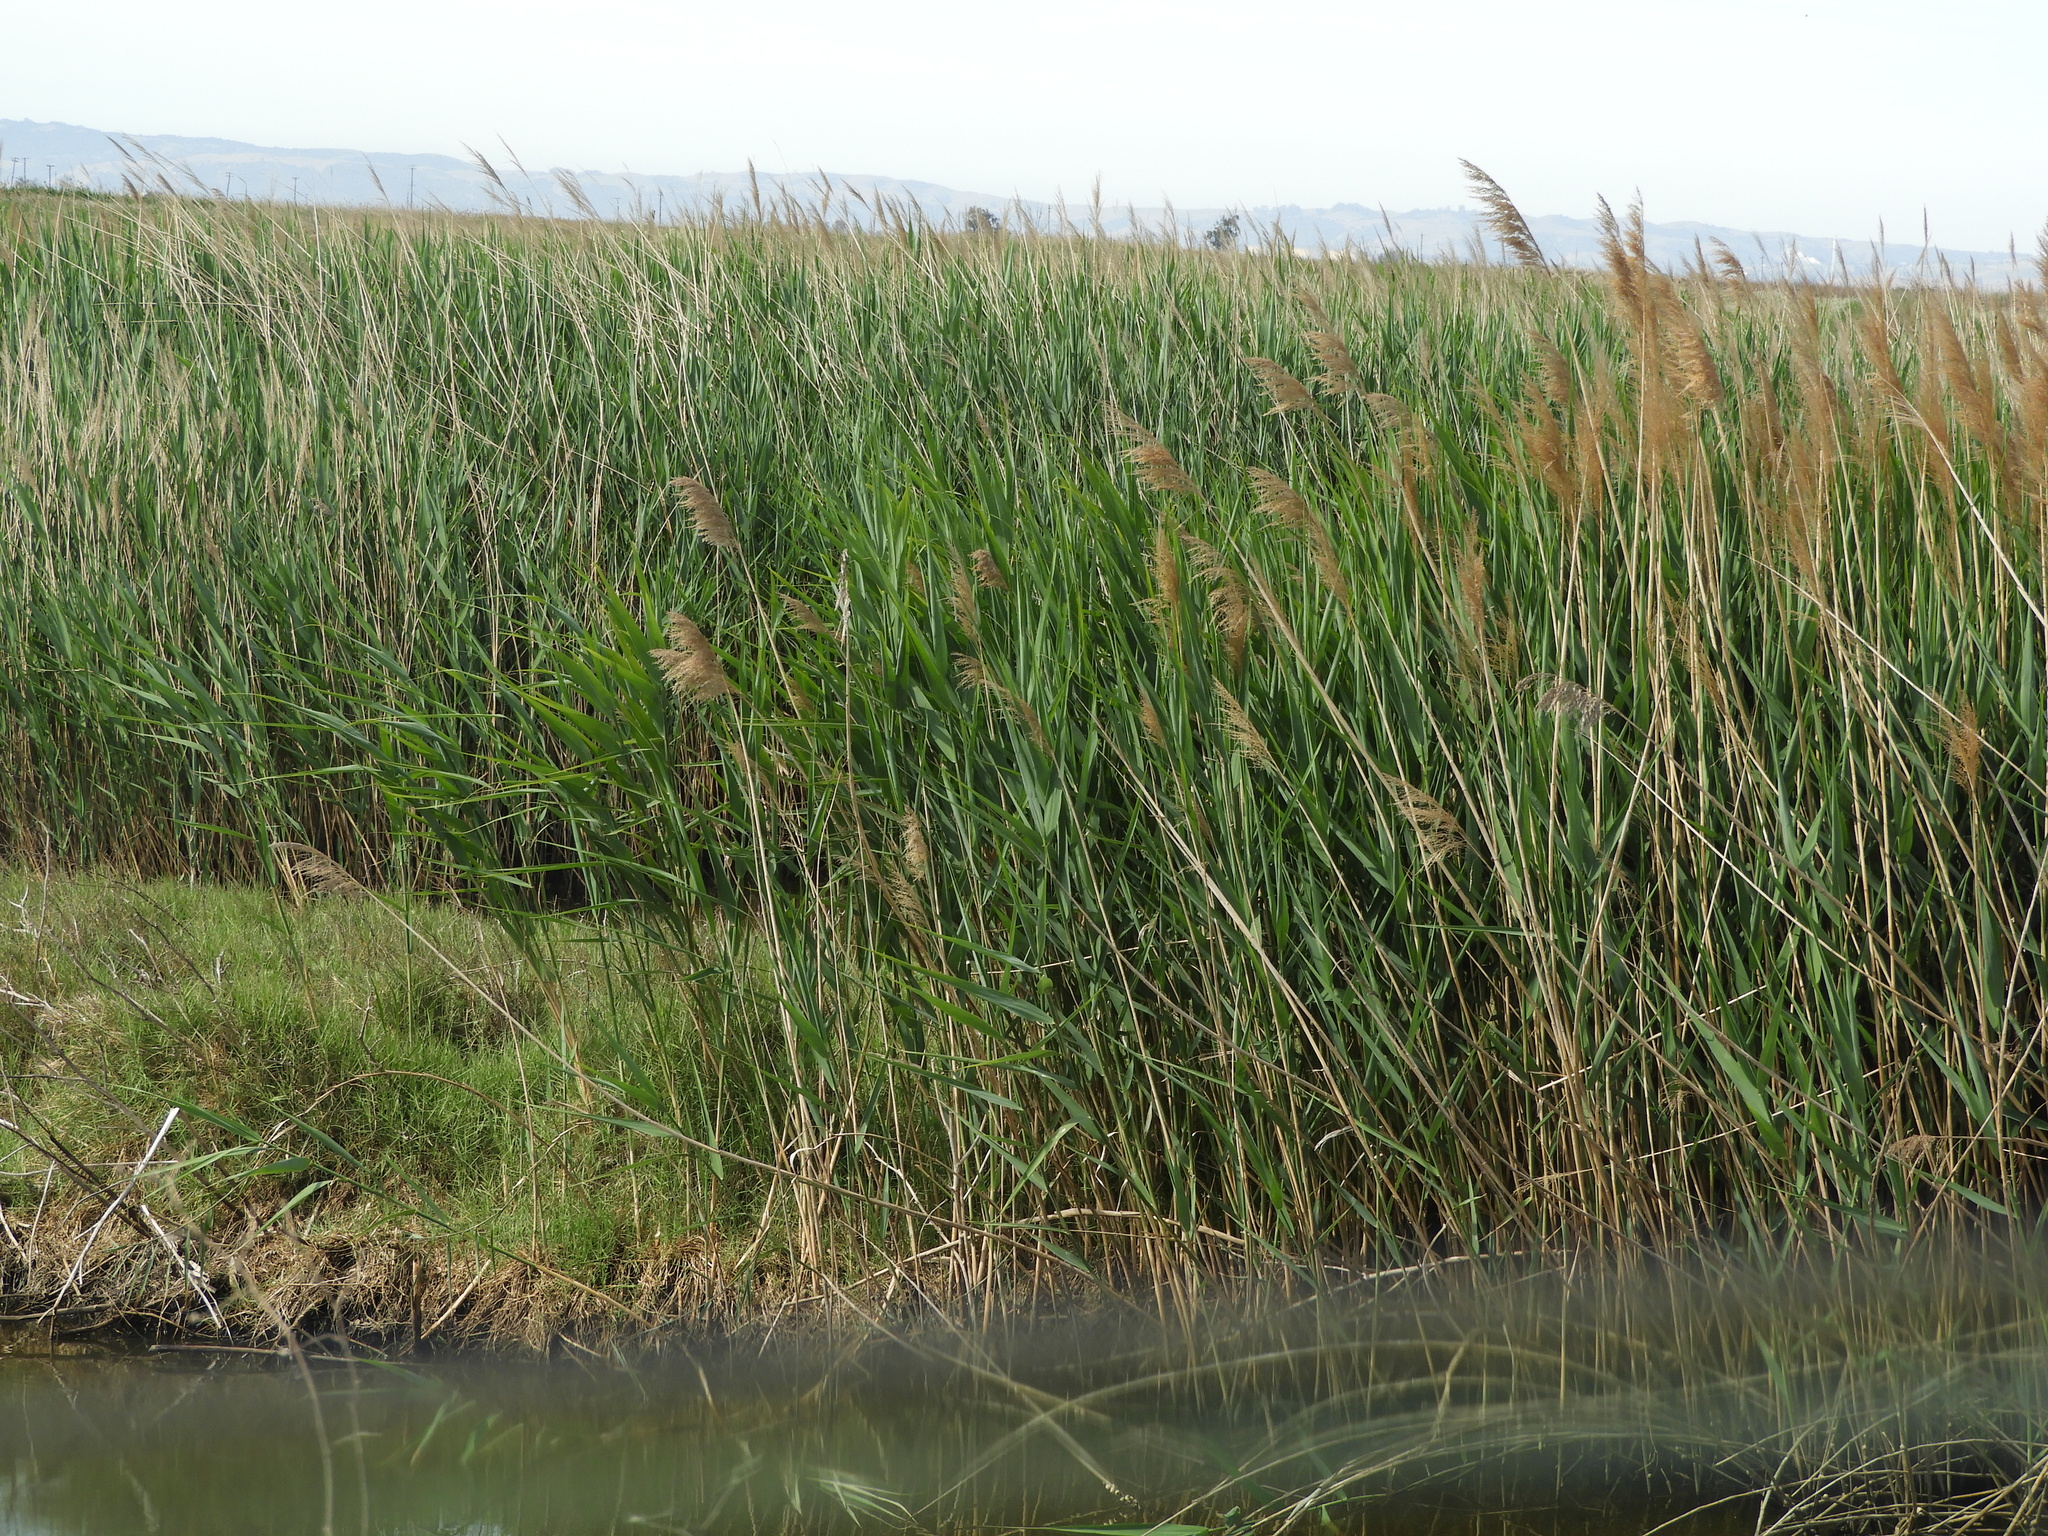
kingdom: Plantae
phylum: Tracheophyta
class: Liliopsida
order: Poales
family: Poaceae
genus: Phragmites
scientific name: Phragmites australis
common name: Common reed
